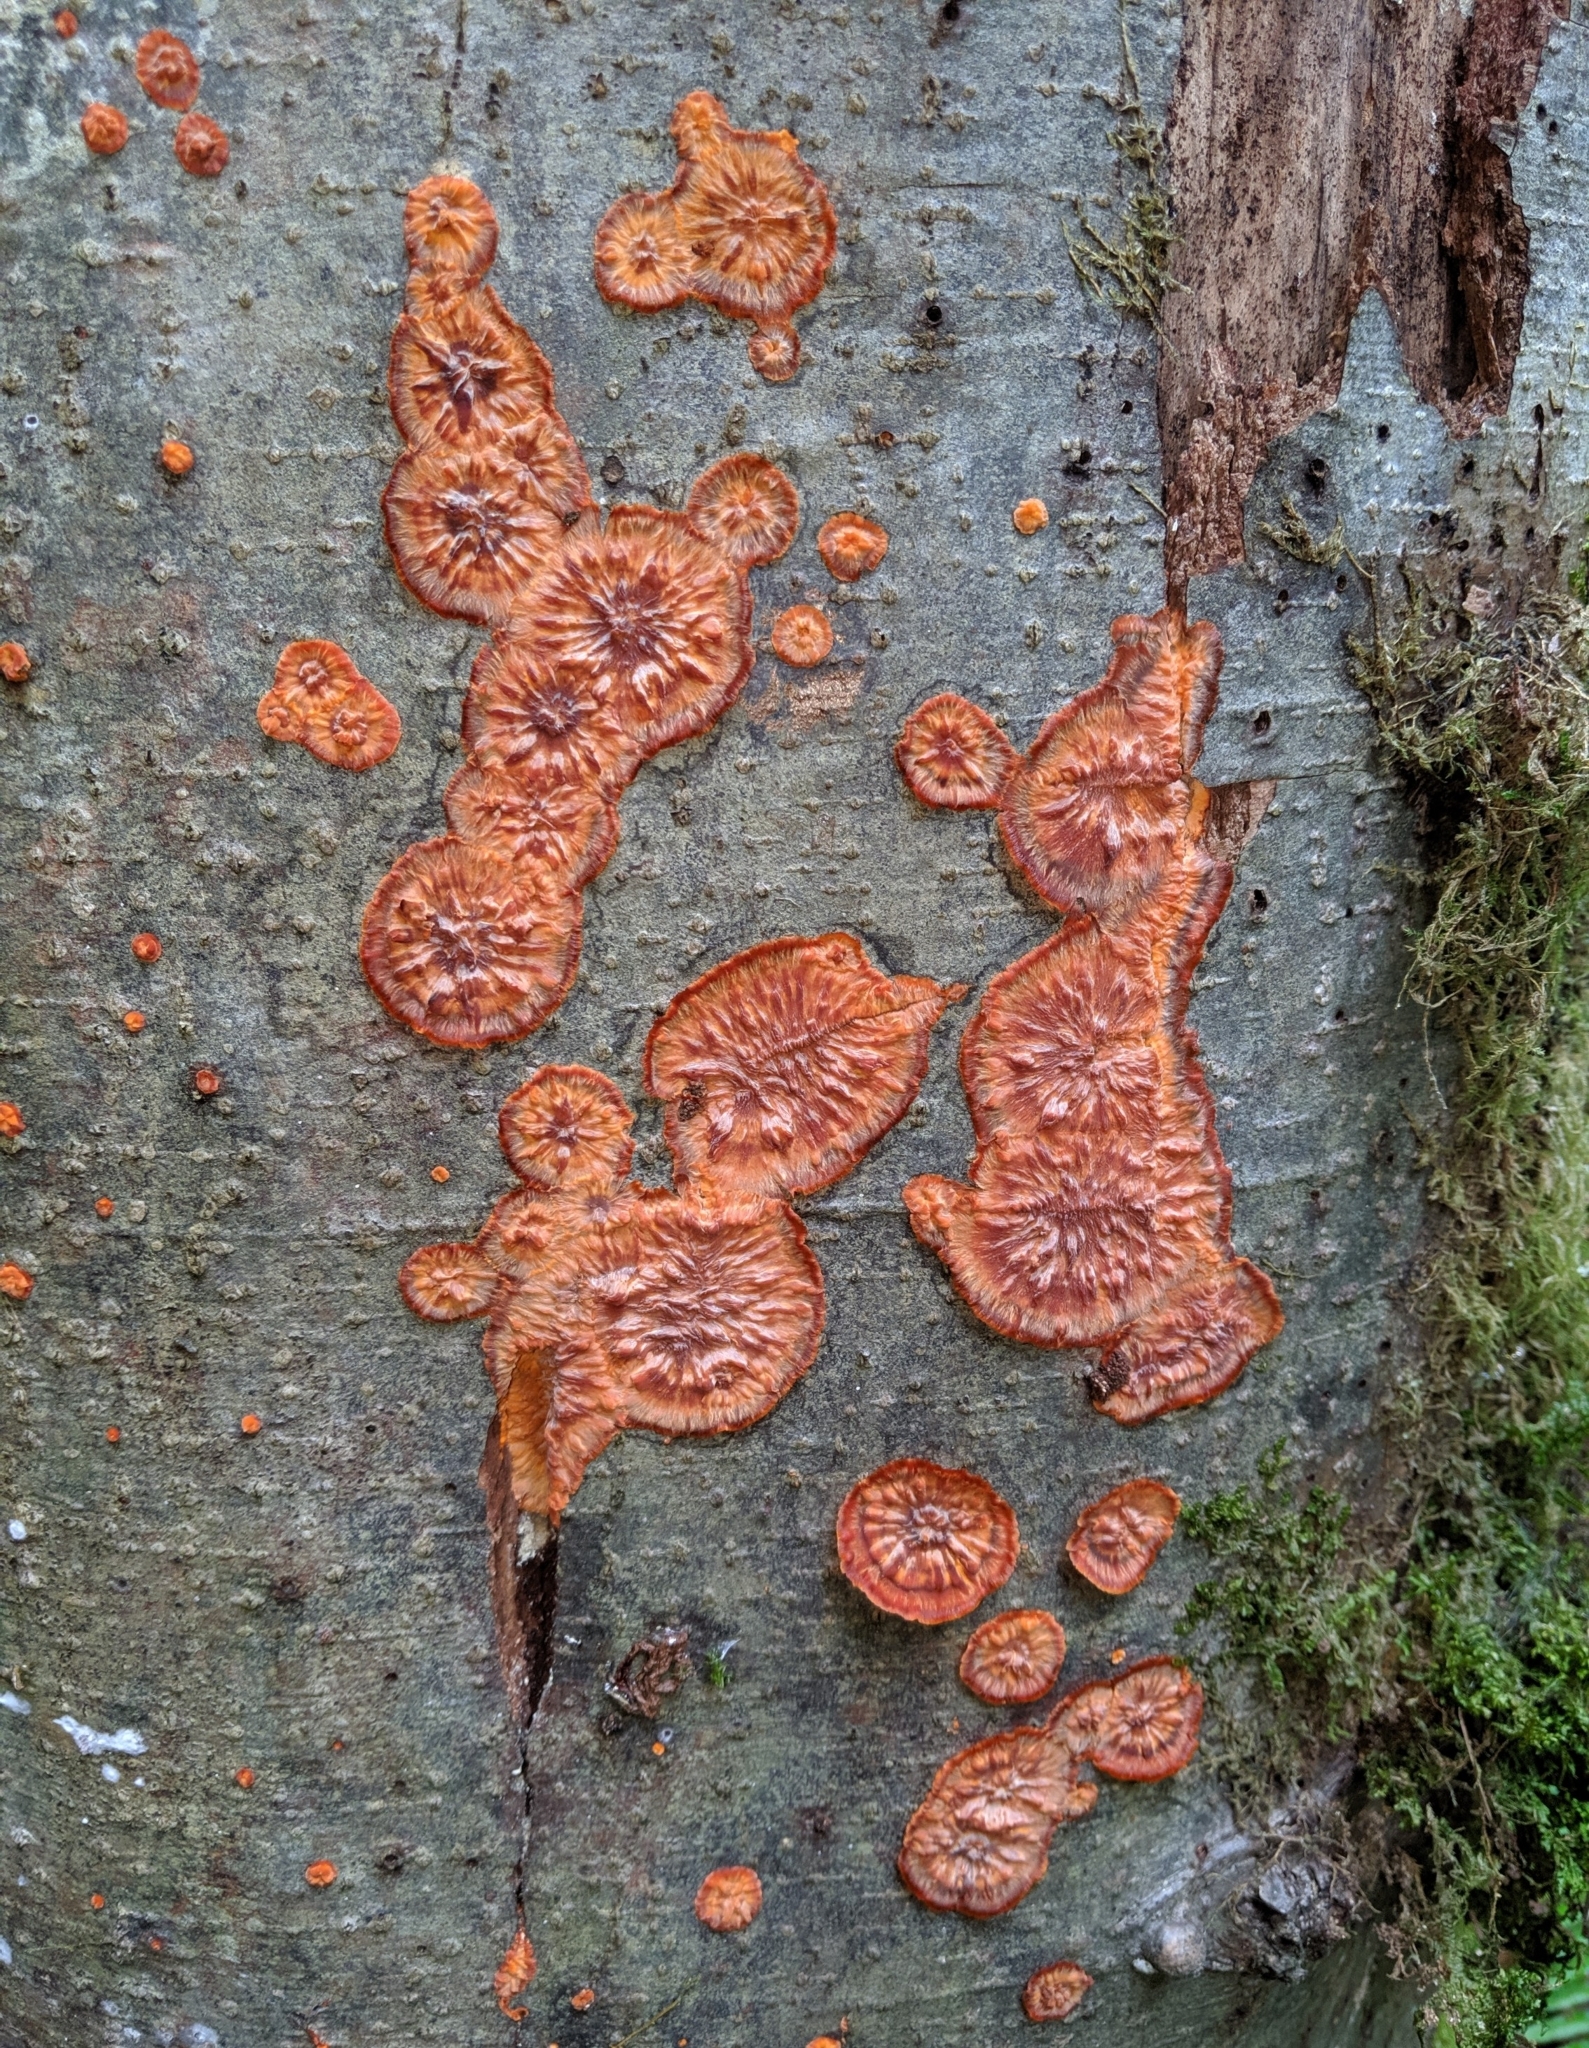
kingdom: Fungi
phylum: Basidiomycota
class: Agaricomycetes
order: Polyporales
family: Meruliaceae
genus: Phlebia
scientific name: Phlebia radiata
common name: Wrinkled crust
